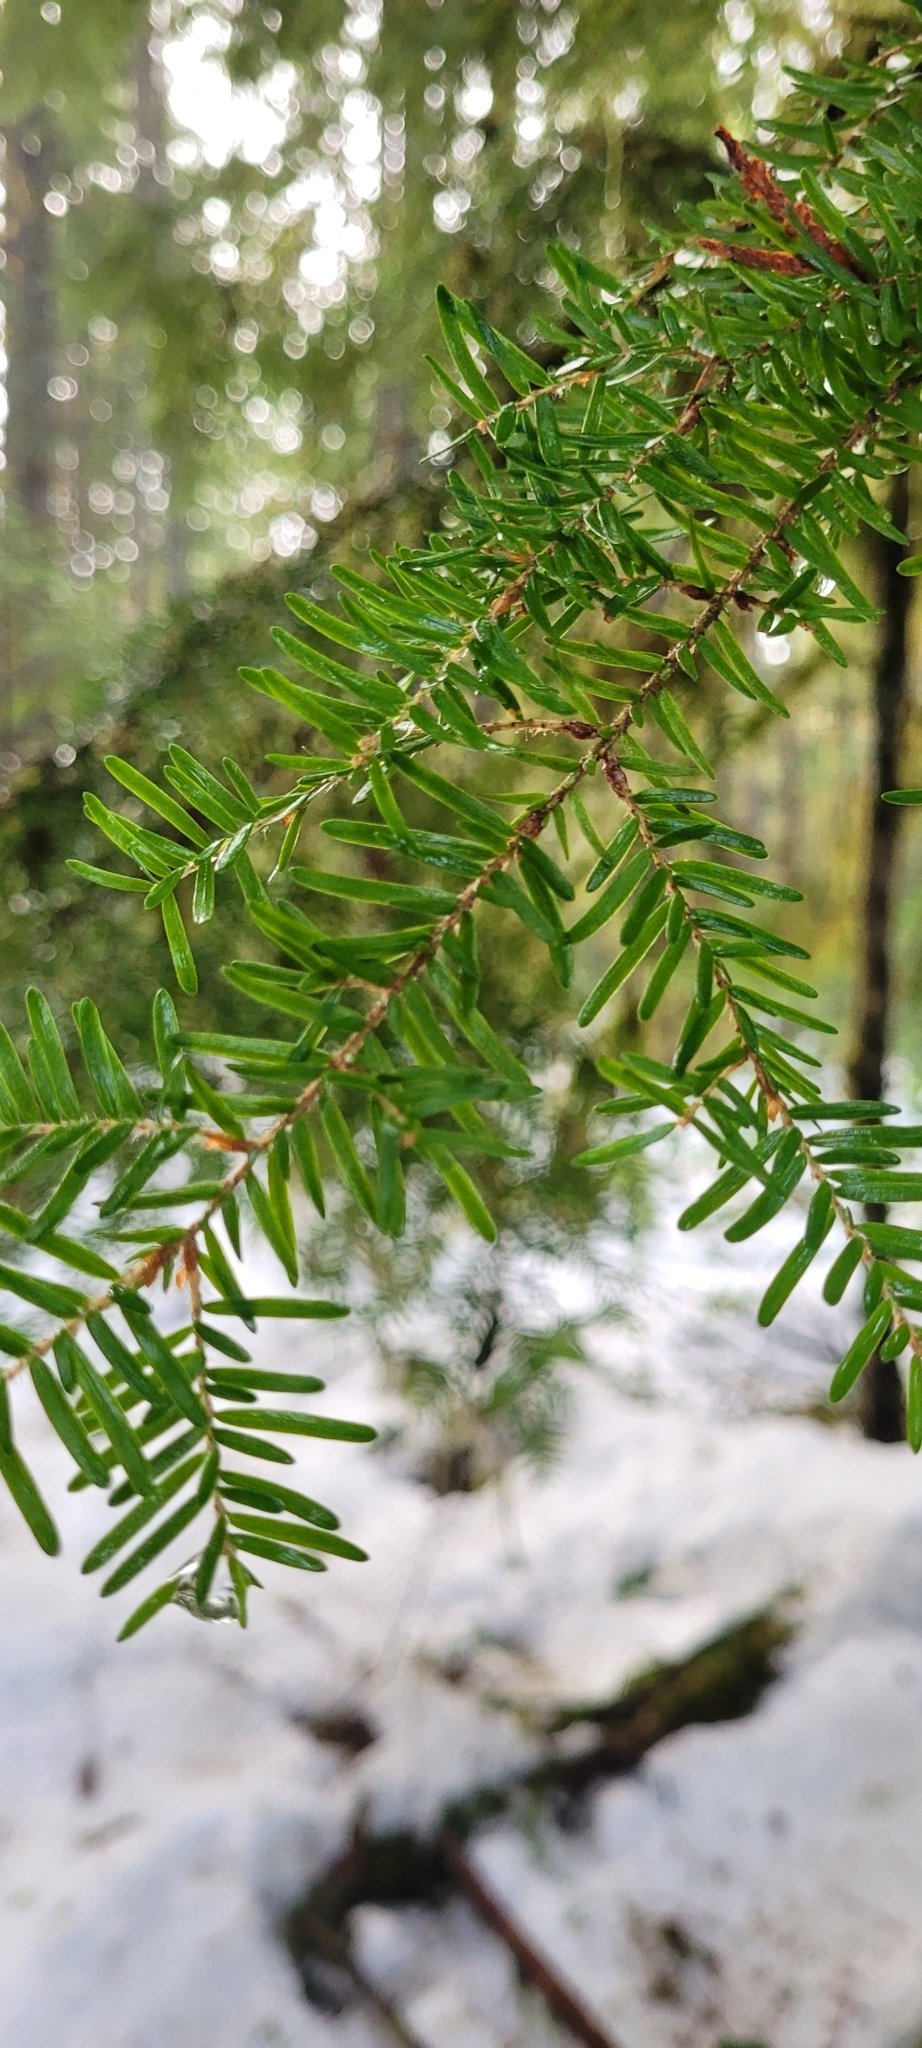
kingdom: Plantae
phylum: Tracheophyta
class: Pinopsida
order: Pinales
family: Pinaceae
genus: Tsuga
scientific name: Tsuga heterophylla
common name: Western hemlock
